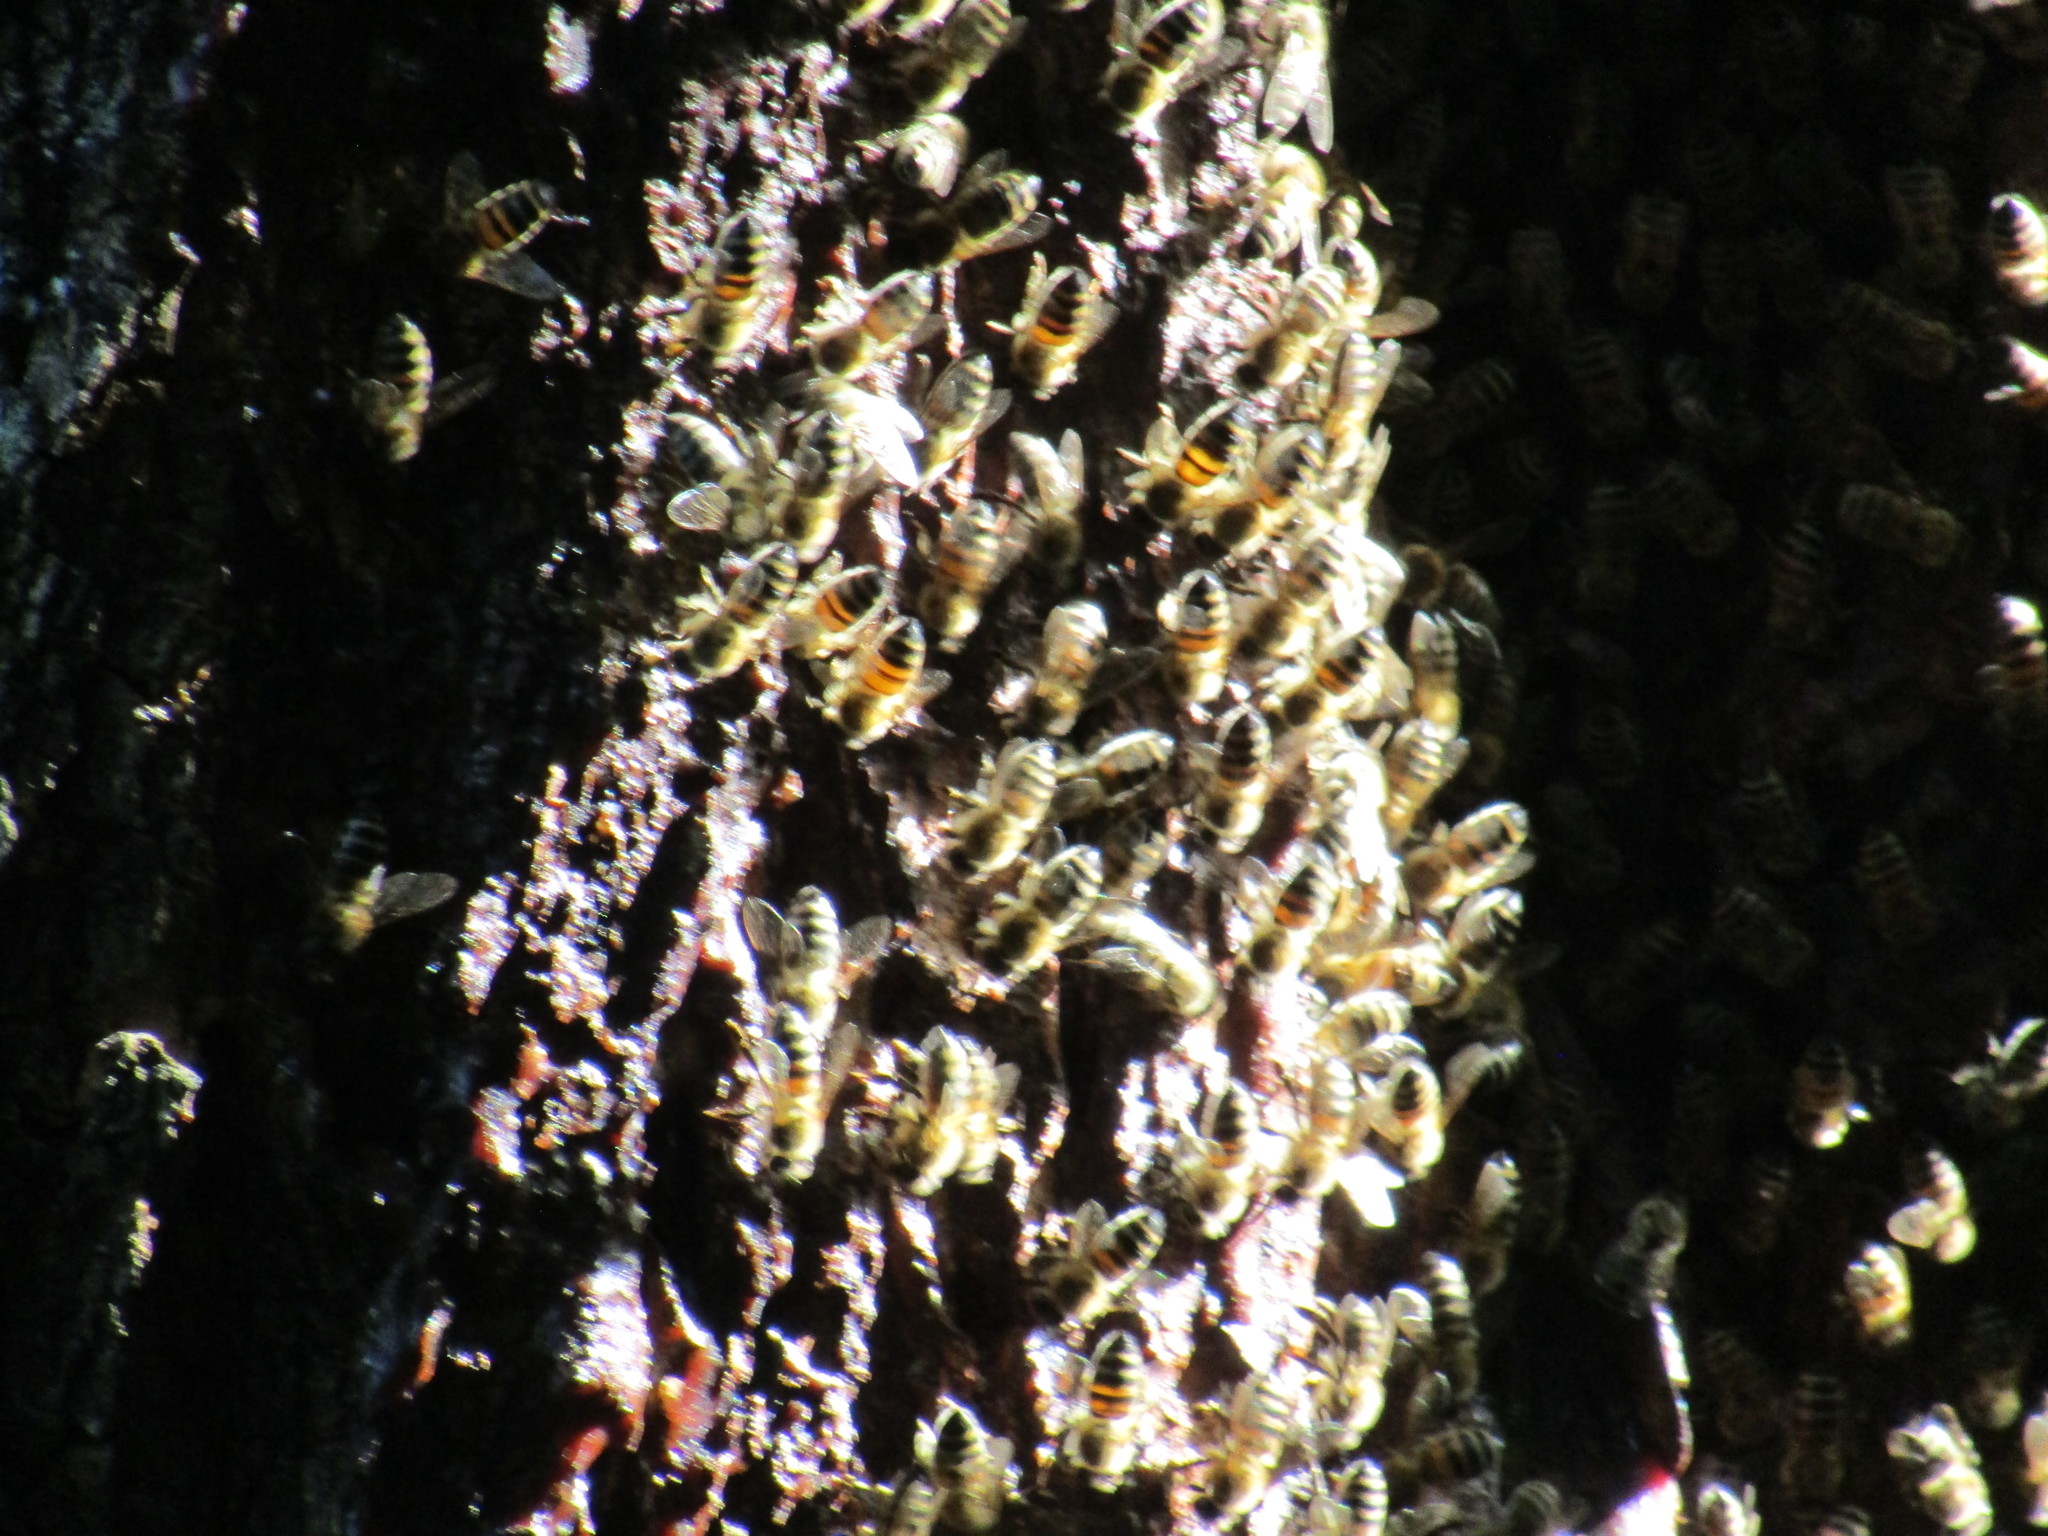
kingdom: Animalia
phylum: Arthropoda
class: Insecta
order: Hymenoptera
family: Apidae
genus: Apis
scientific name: Apis mellifera
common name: Honey bee
